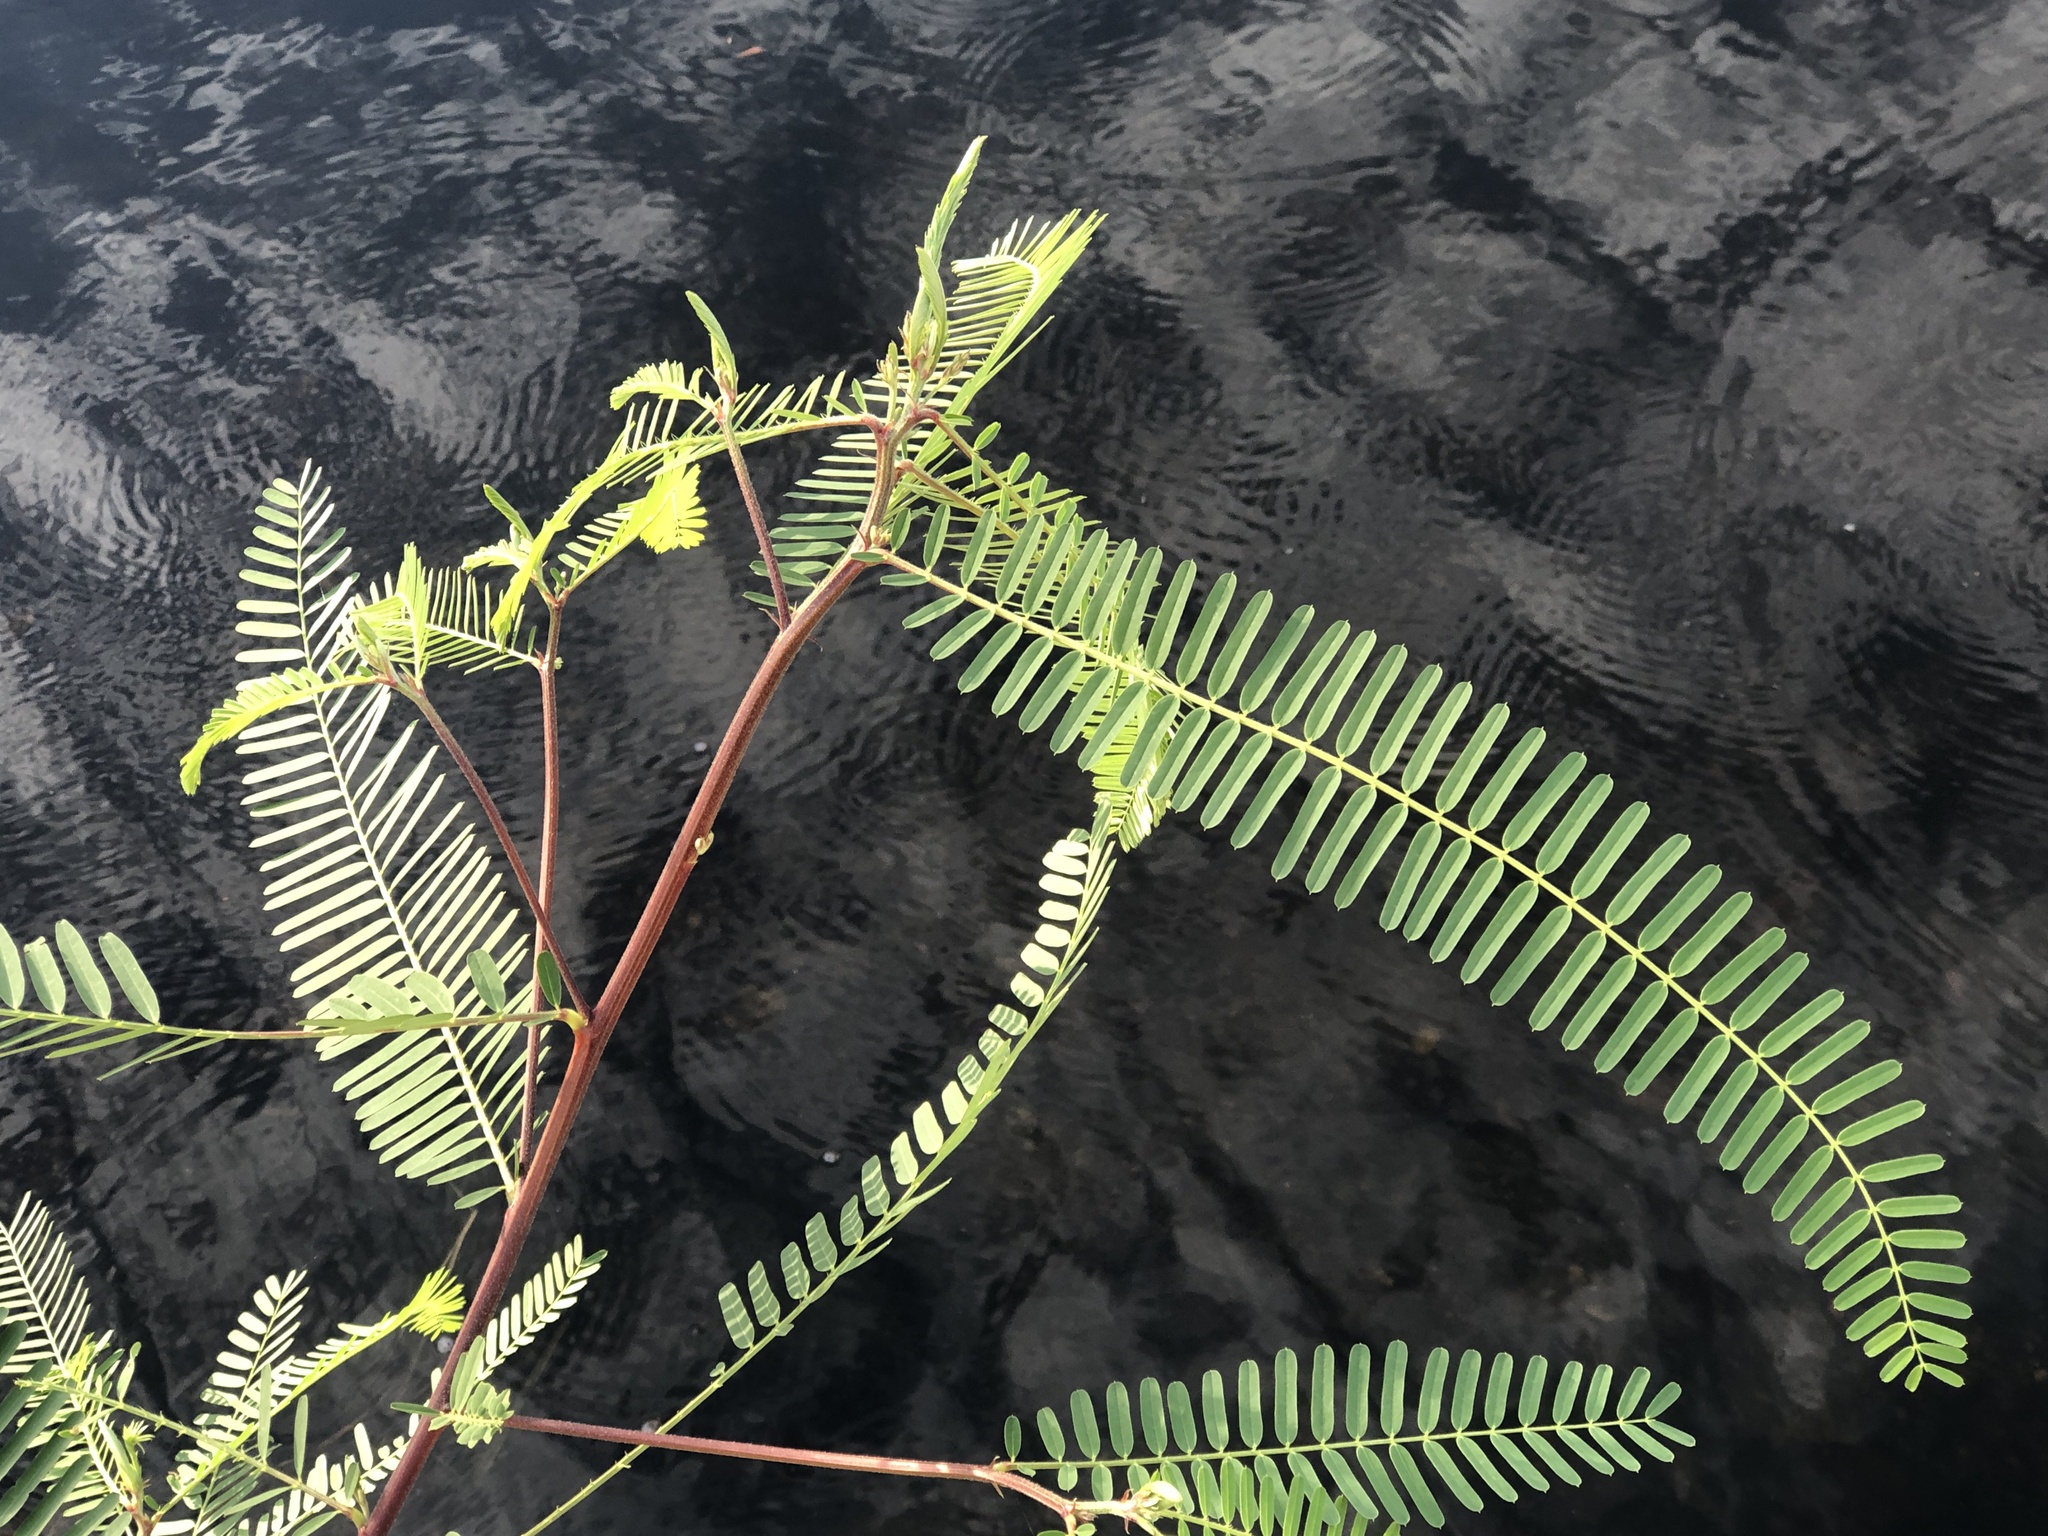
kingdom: Plantae
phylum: Tracheophyta
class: Magnoliopsida
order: Fabales
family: Fabaceae
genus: Sesbania
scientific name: Sesbania cannabina
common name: Canicha
